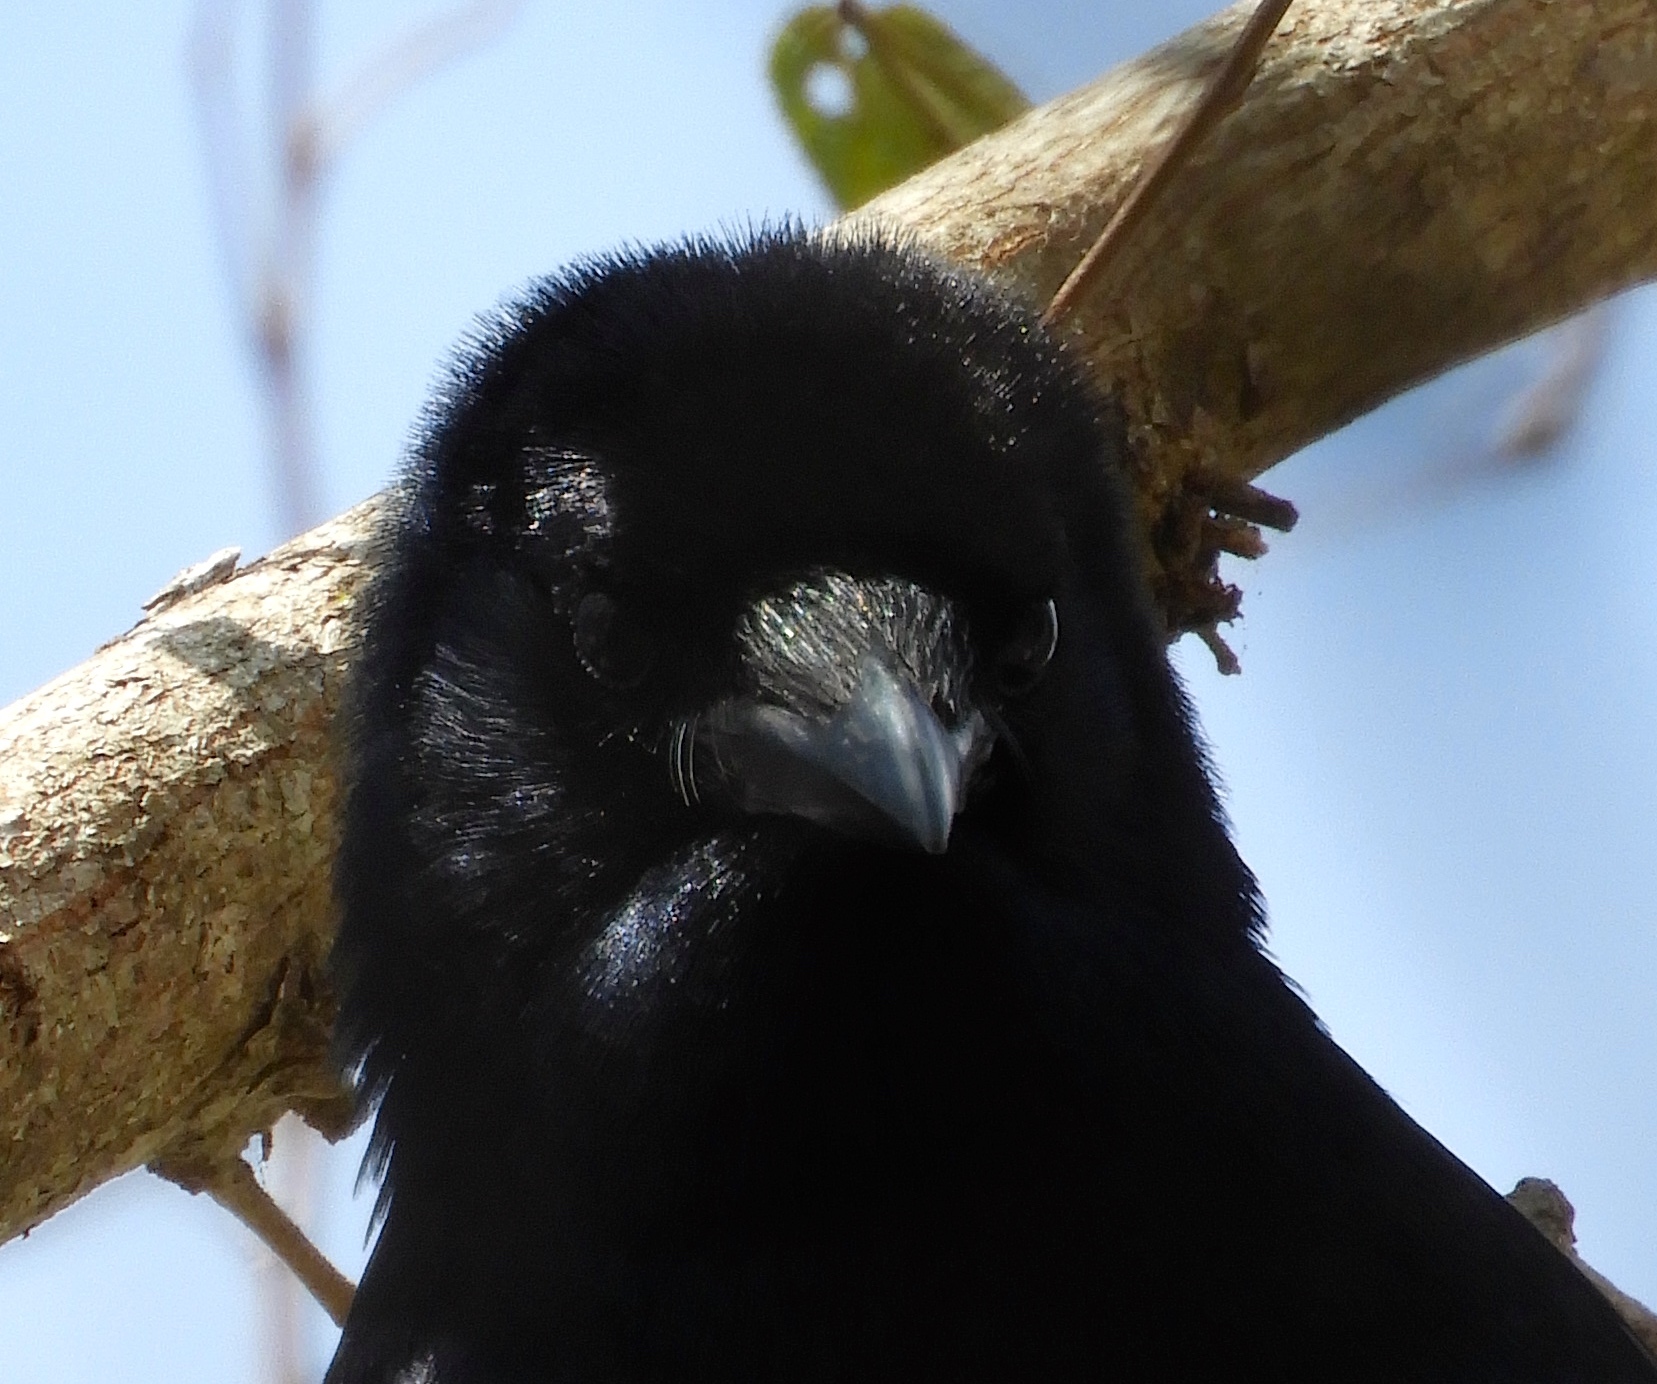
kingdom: Animalia
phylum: Chordata
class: Aves
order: Passeriformes
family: Corvidae
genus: Corvus
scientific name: Corvus sinaloae
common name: Sinaloa crow
